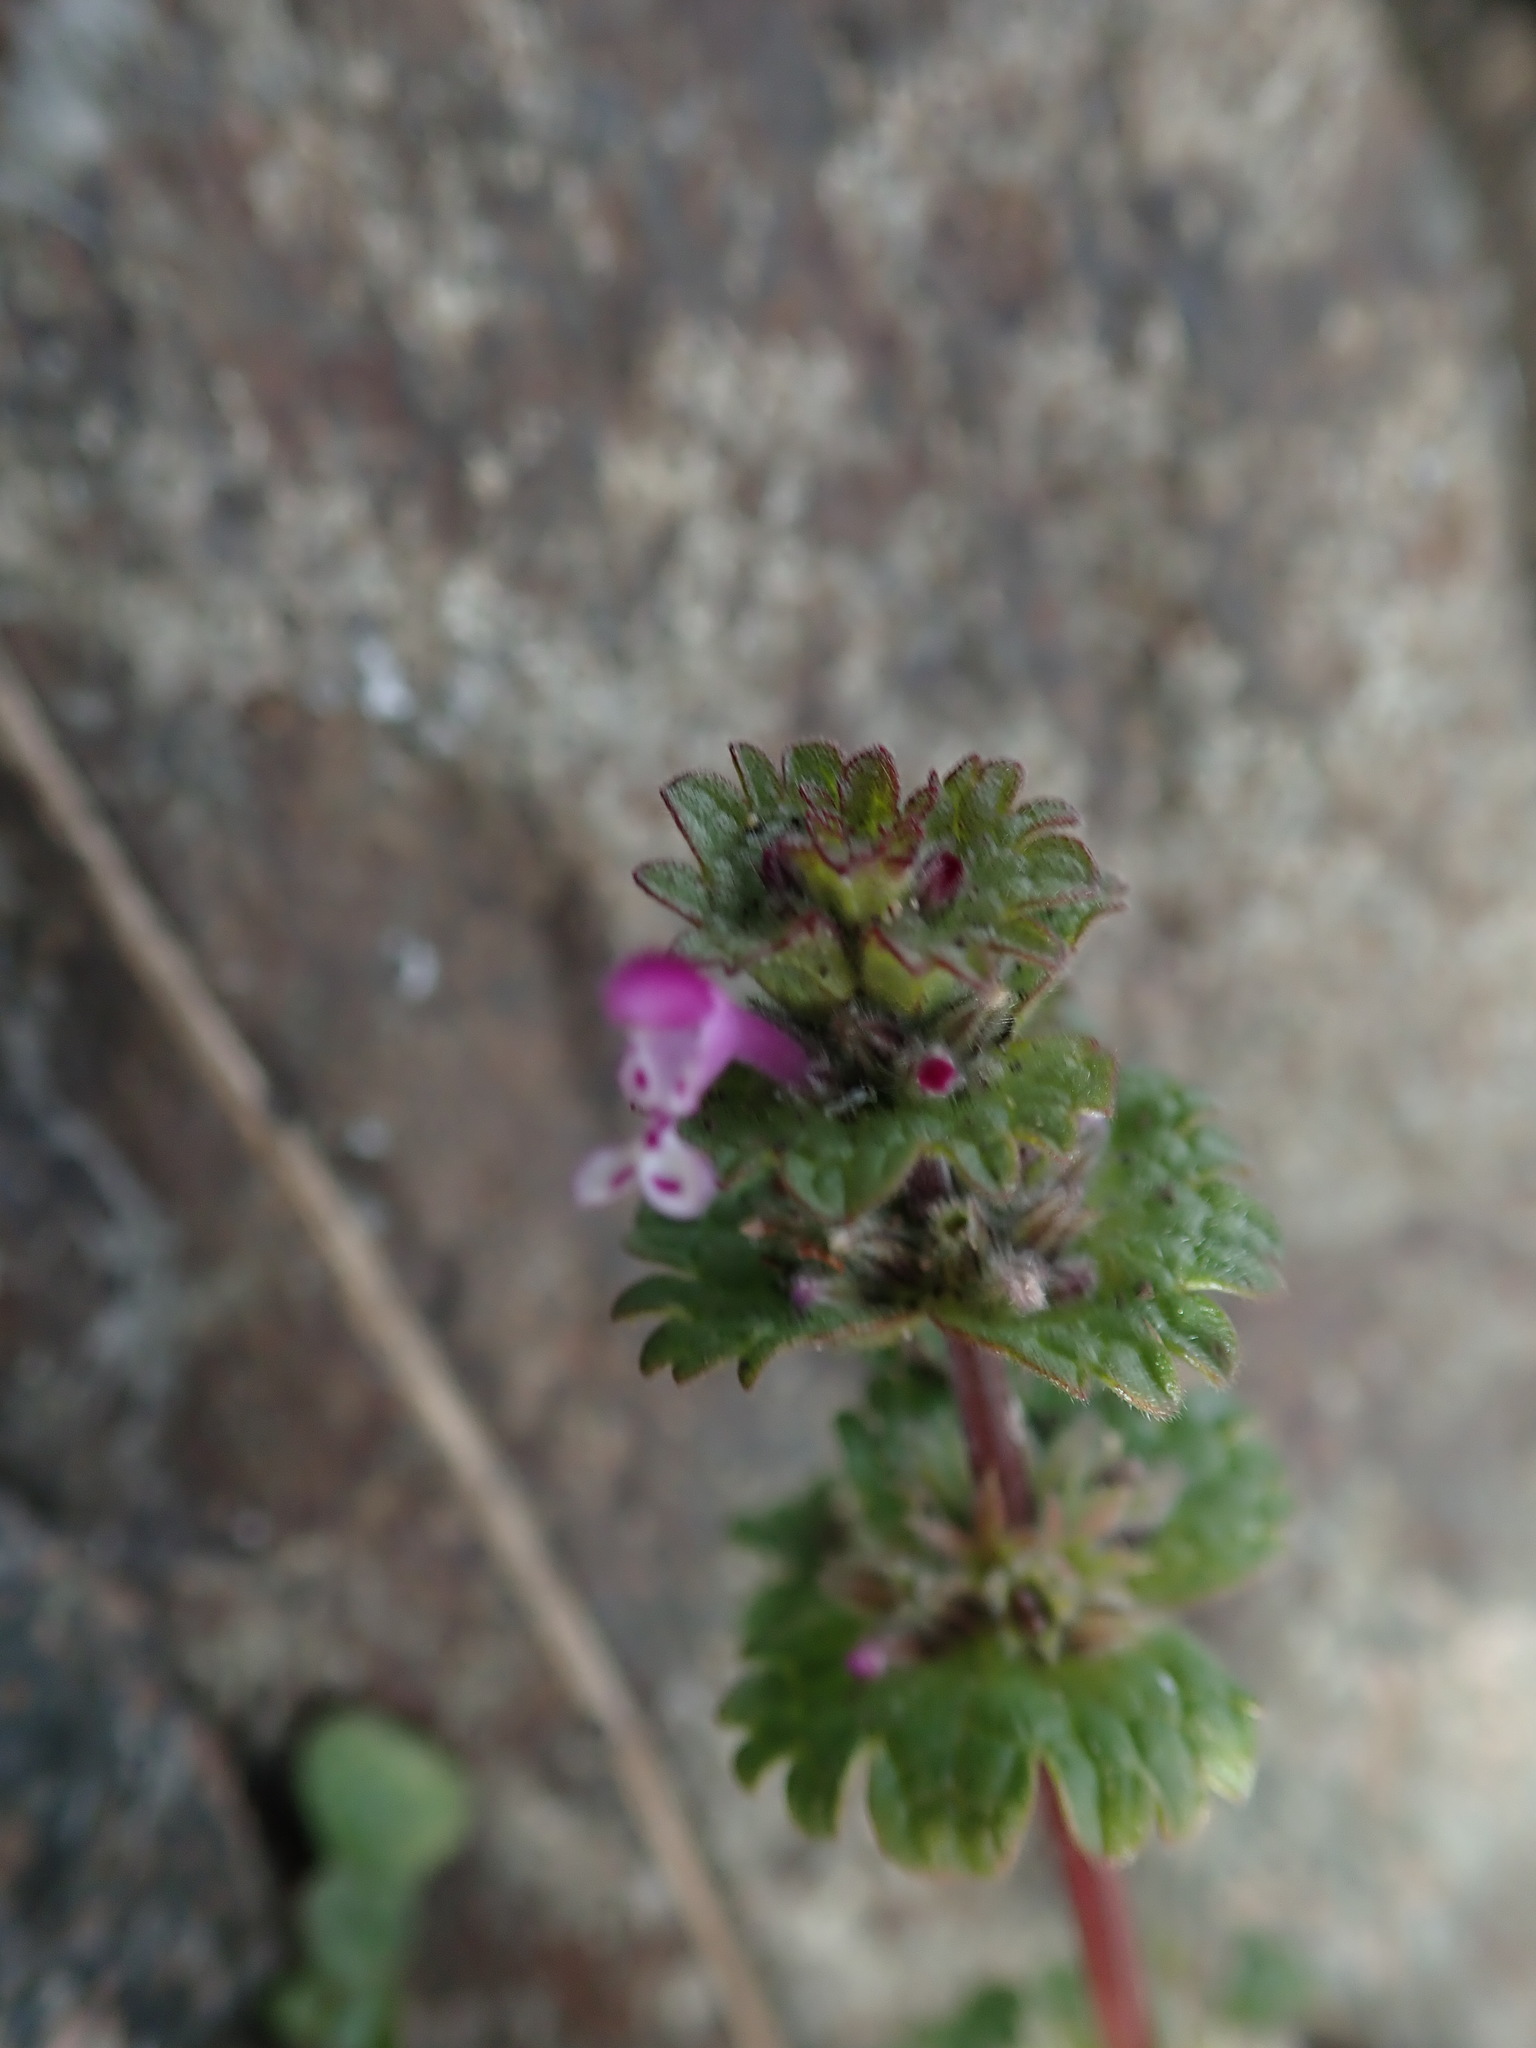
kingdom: Plantae
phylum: Tracheophyta
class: Magnoliopsida
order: Lamiales
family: Lamiaceae
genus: Lamium
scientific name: Lamium amplexicaule
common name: Henbit dead-nettle
